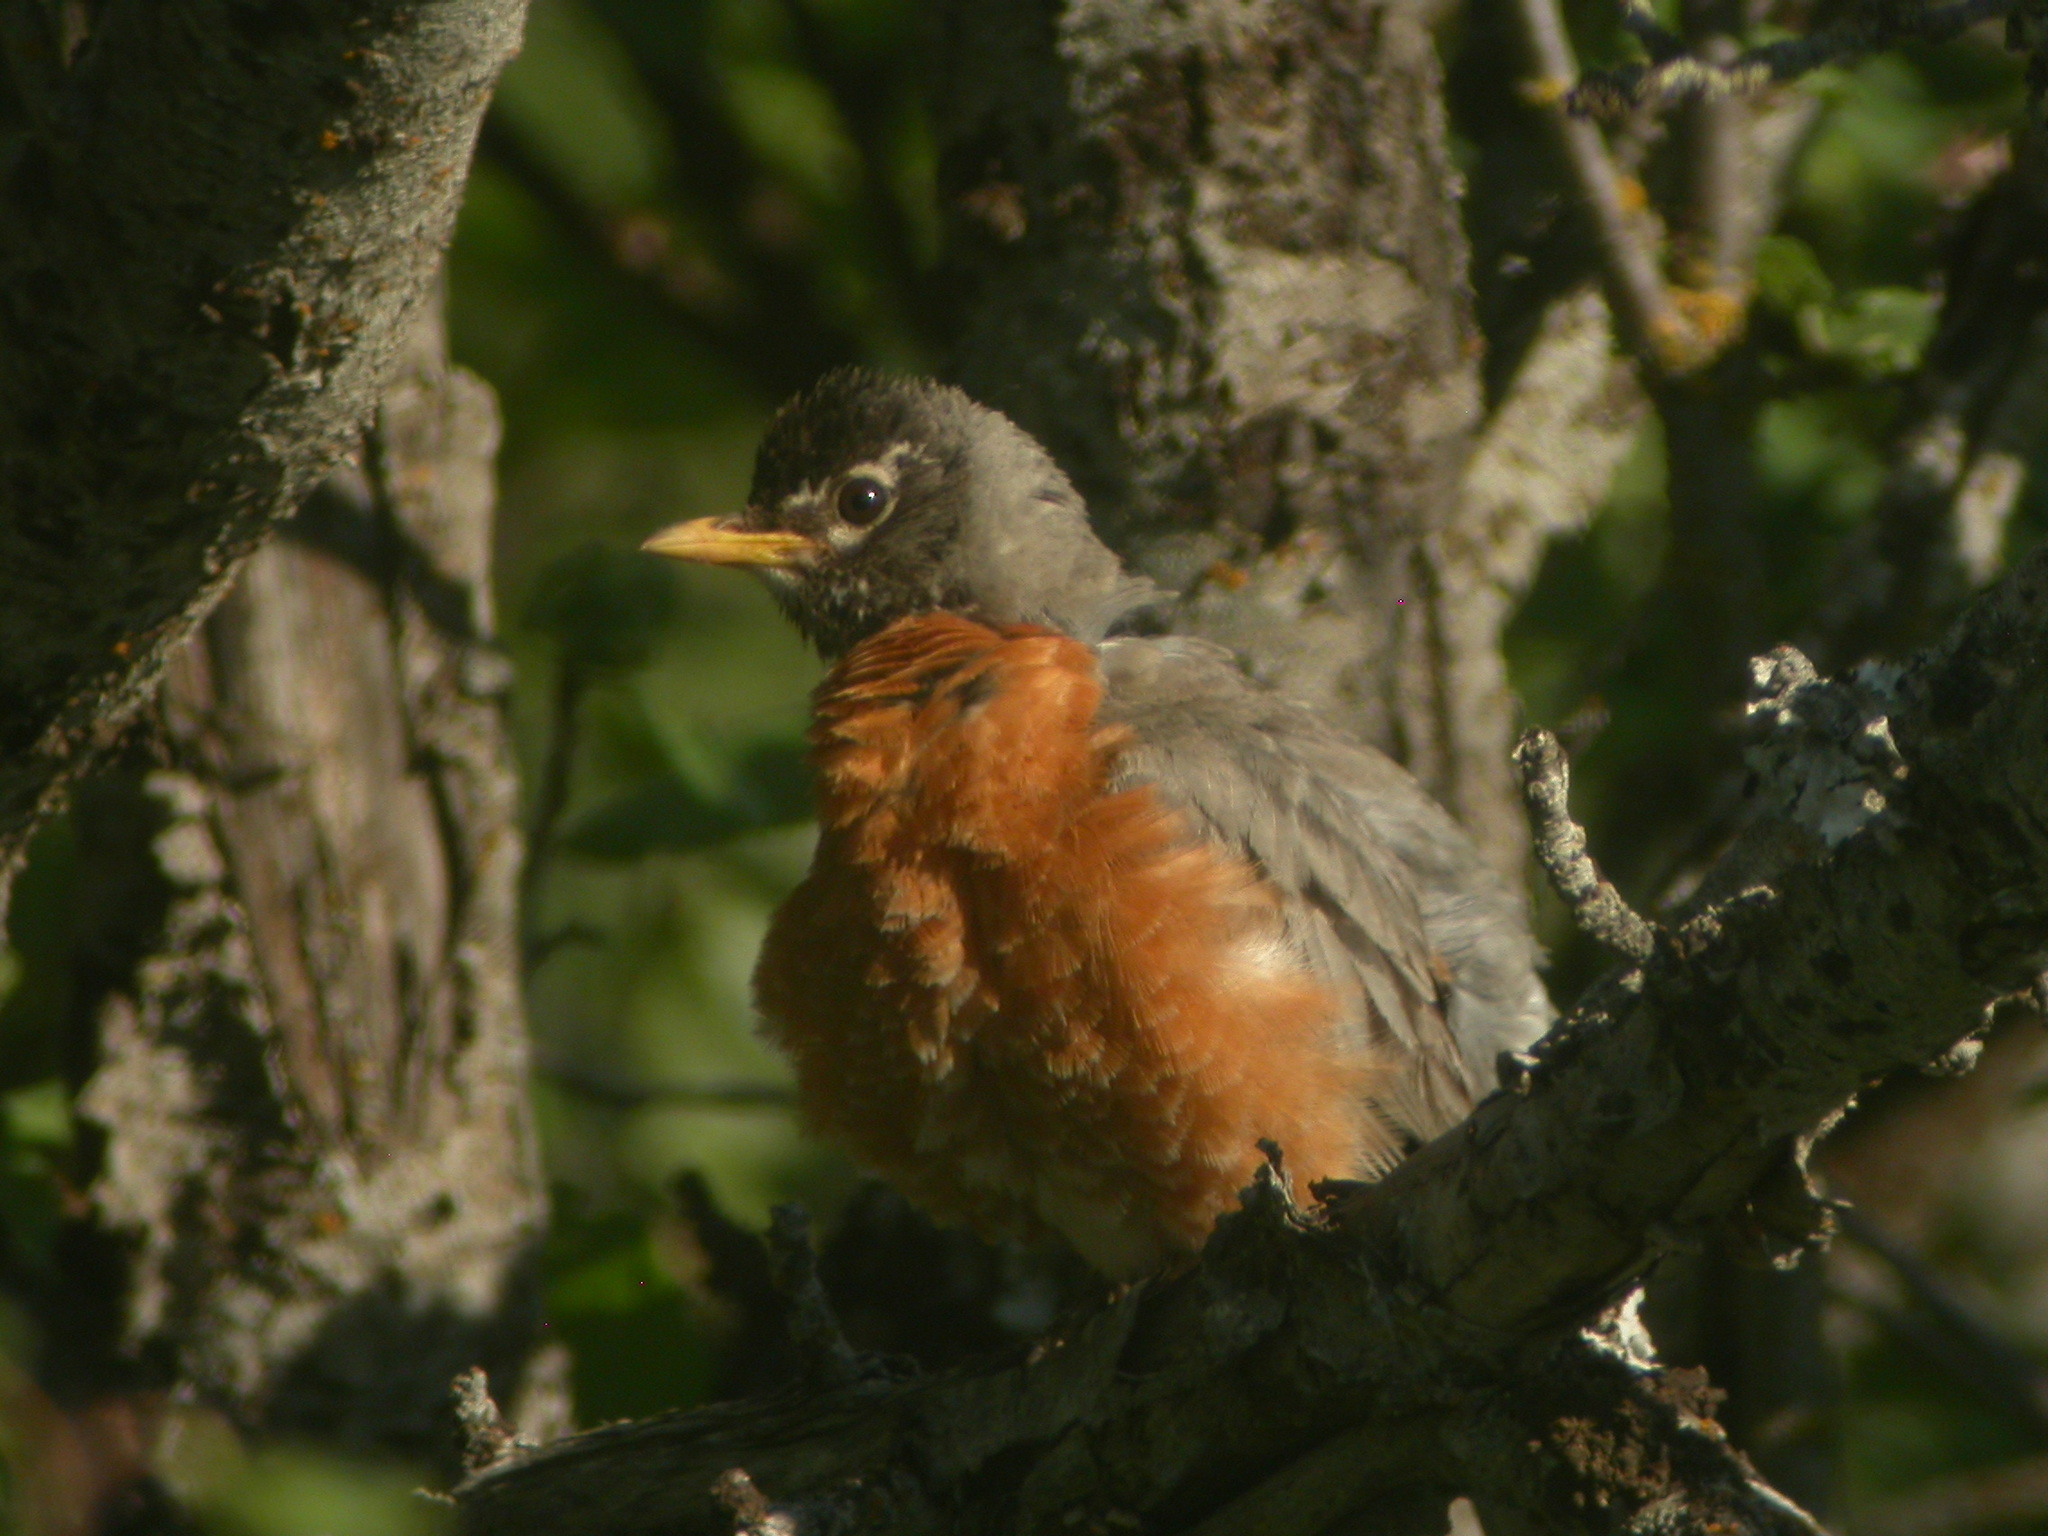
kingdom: Animalia
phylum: Chordata
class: Aves
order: Passeriformes
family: Turdidae
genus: Turdus
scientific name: Turdus migratorius
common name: American robin
